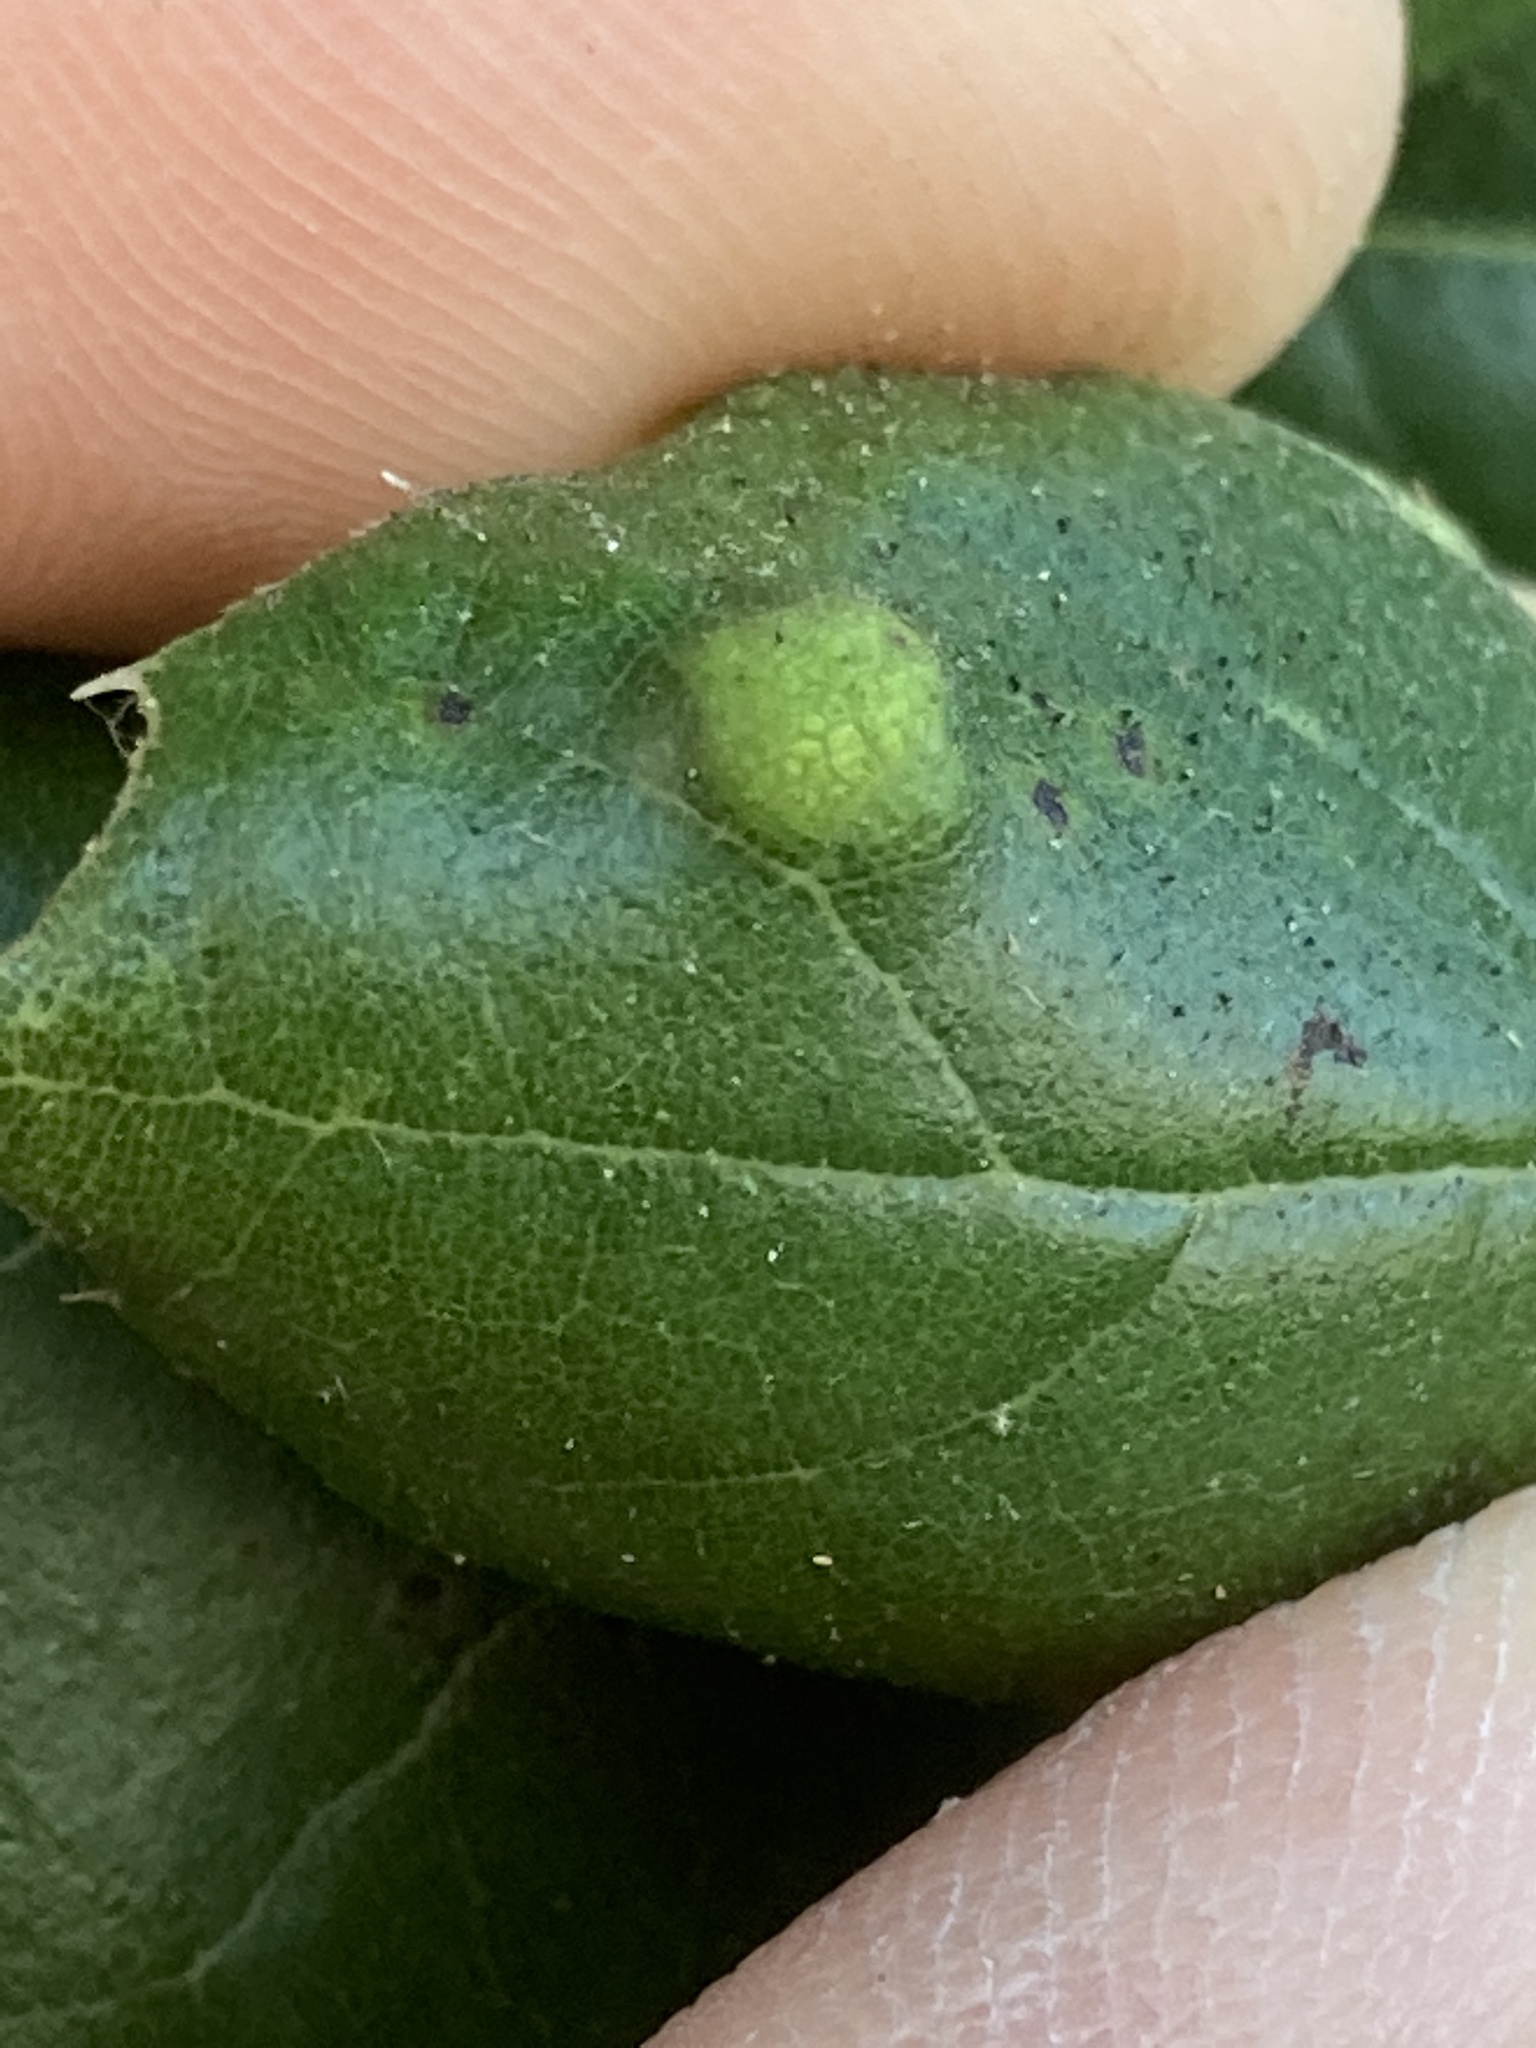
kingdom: Animalia
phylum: Arthropoda
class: Arachnida
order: Trombidiformes
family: Eriophyidae
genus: Aceria
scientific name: Aceria
